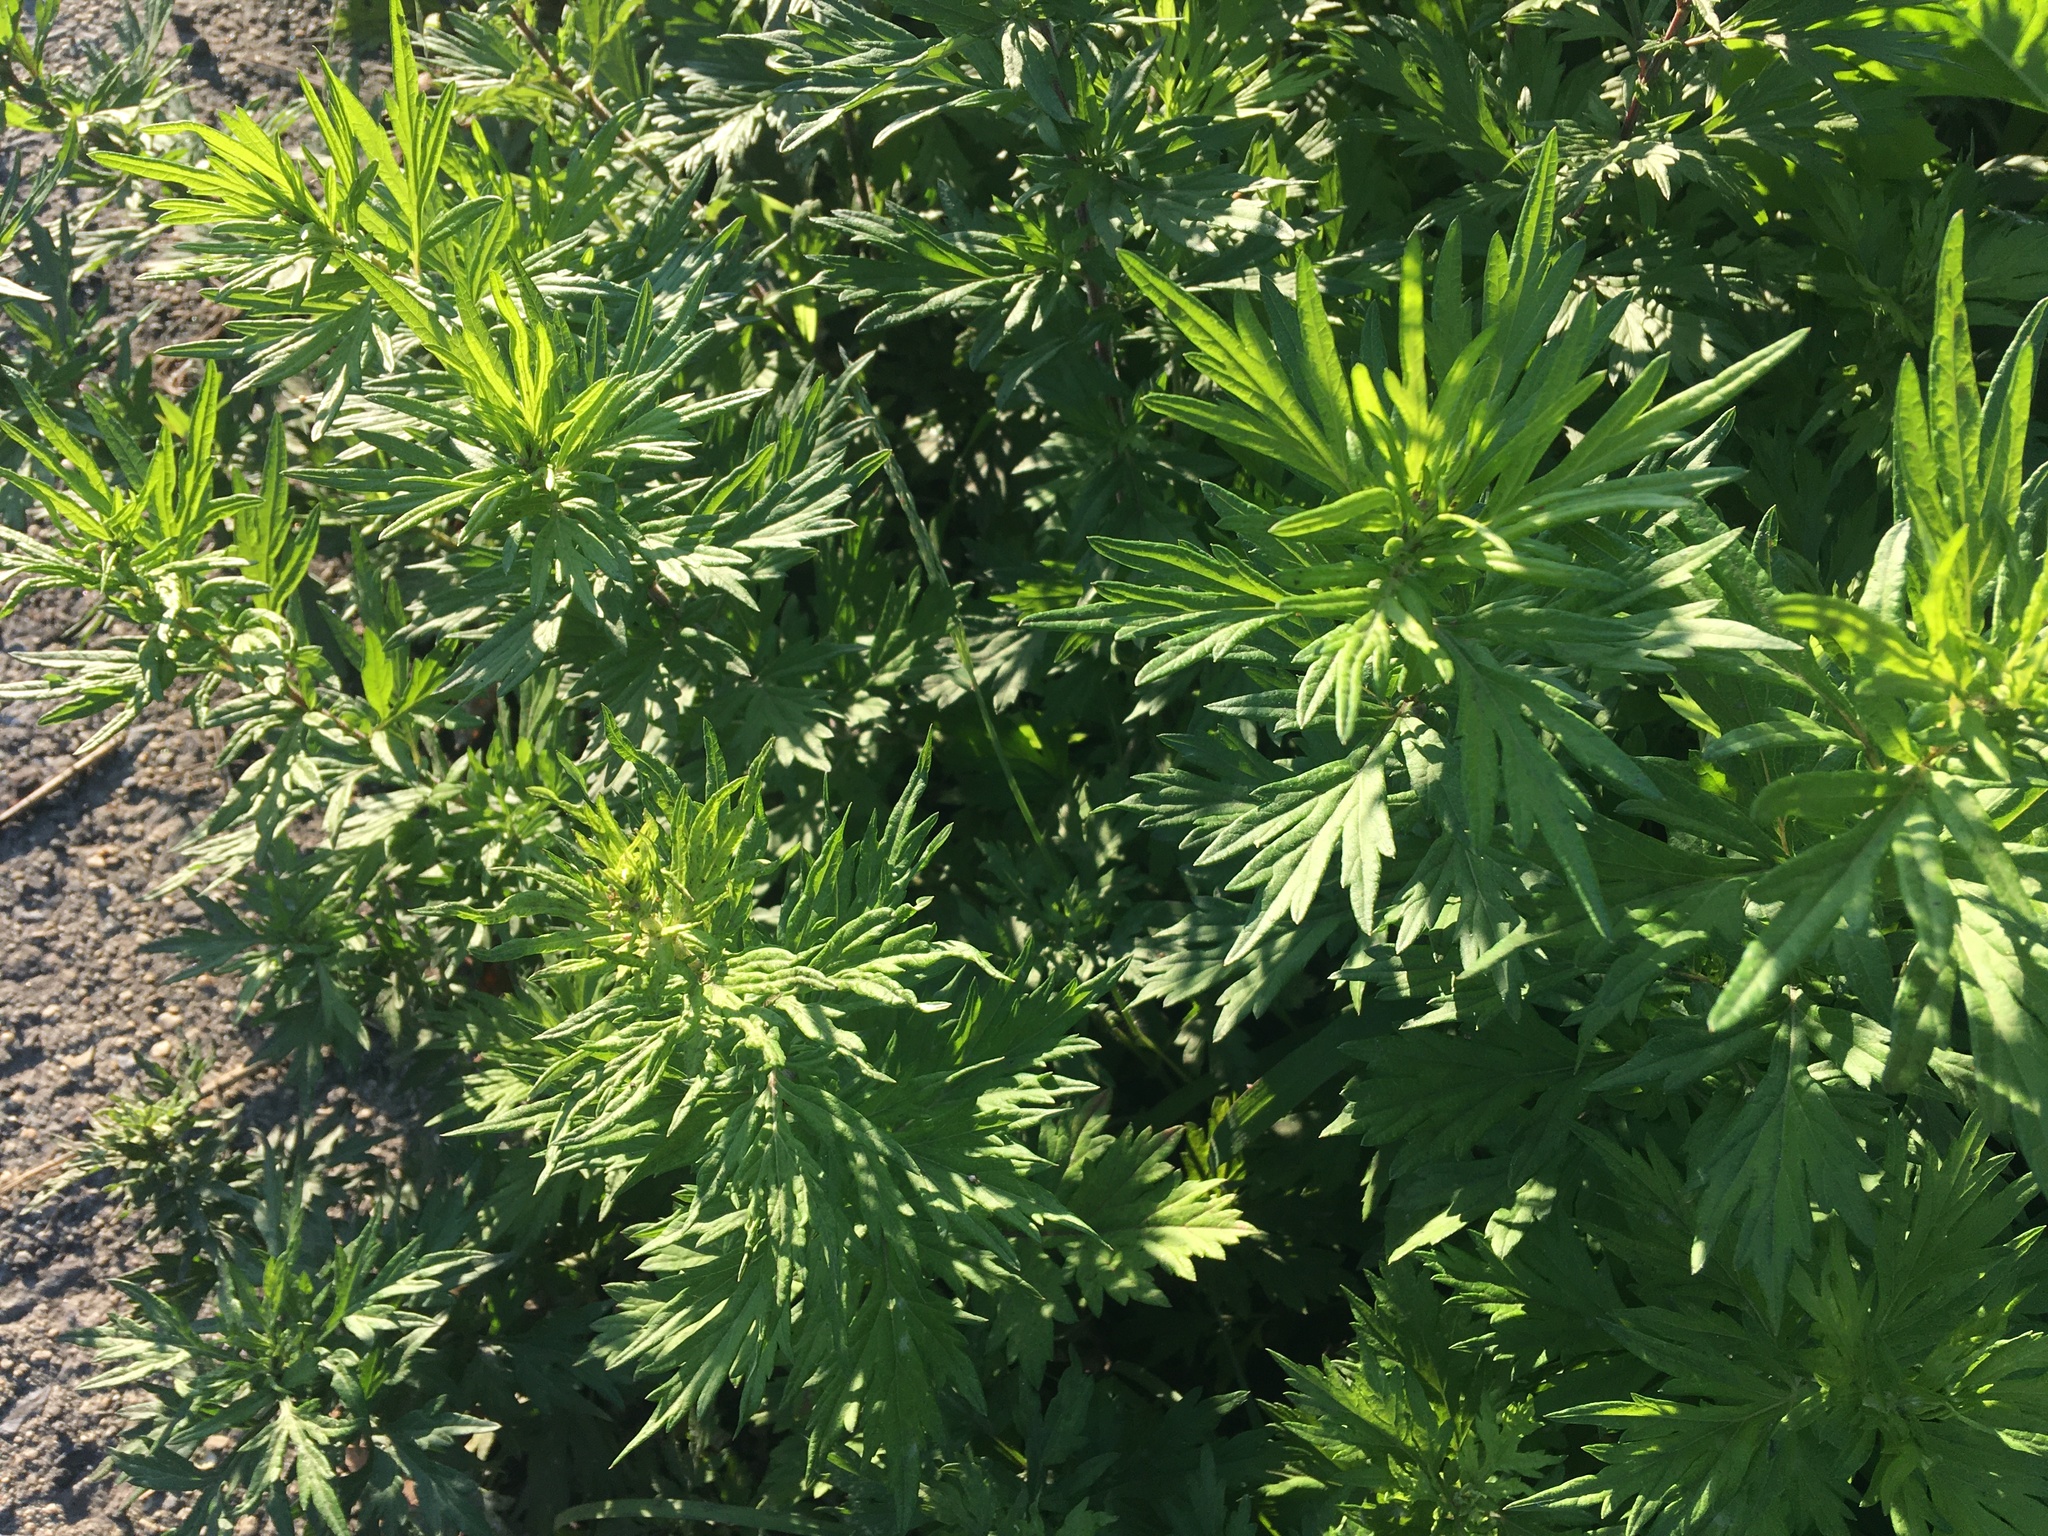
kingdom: Plantae
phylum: Tracheophyta
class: Magnoliopsida
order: Asterales
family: Asteraceae
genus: Artemisia
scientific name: Artemisia vulgaris
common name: Mugwort
